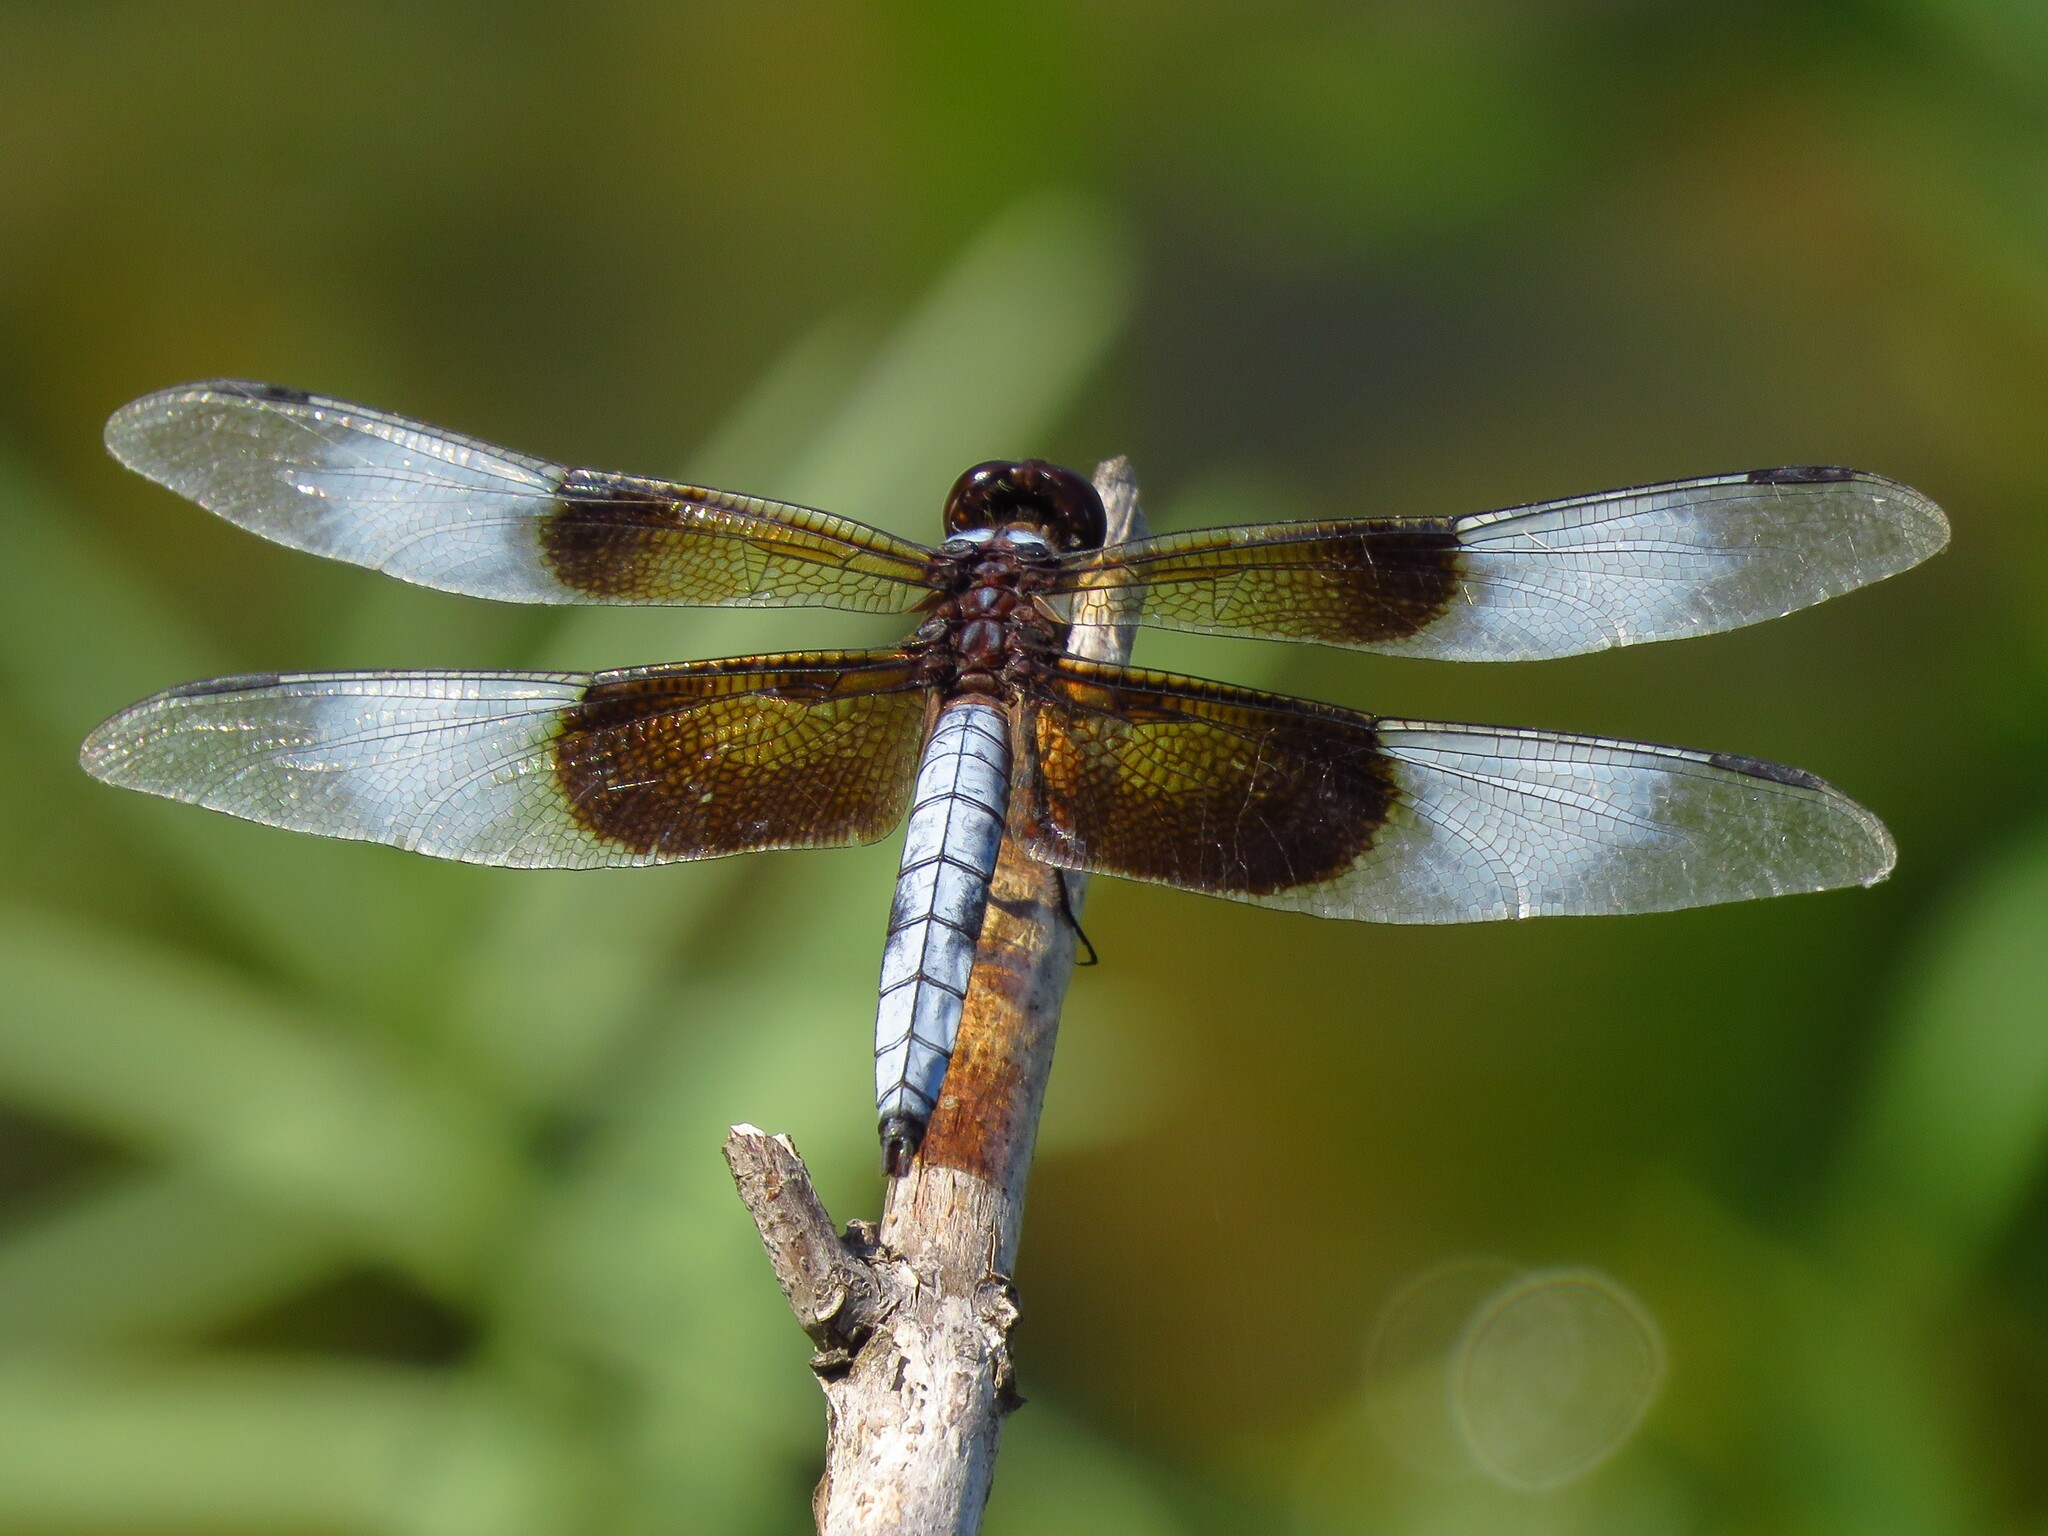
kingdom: Animalia
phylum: Arthropoda
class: Insecta
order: Odonata
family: Libellulidae
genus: Libellula
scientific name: Libellula luctuosa
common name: Widow skimmer
